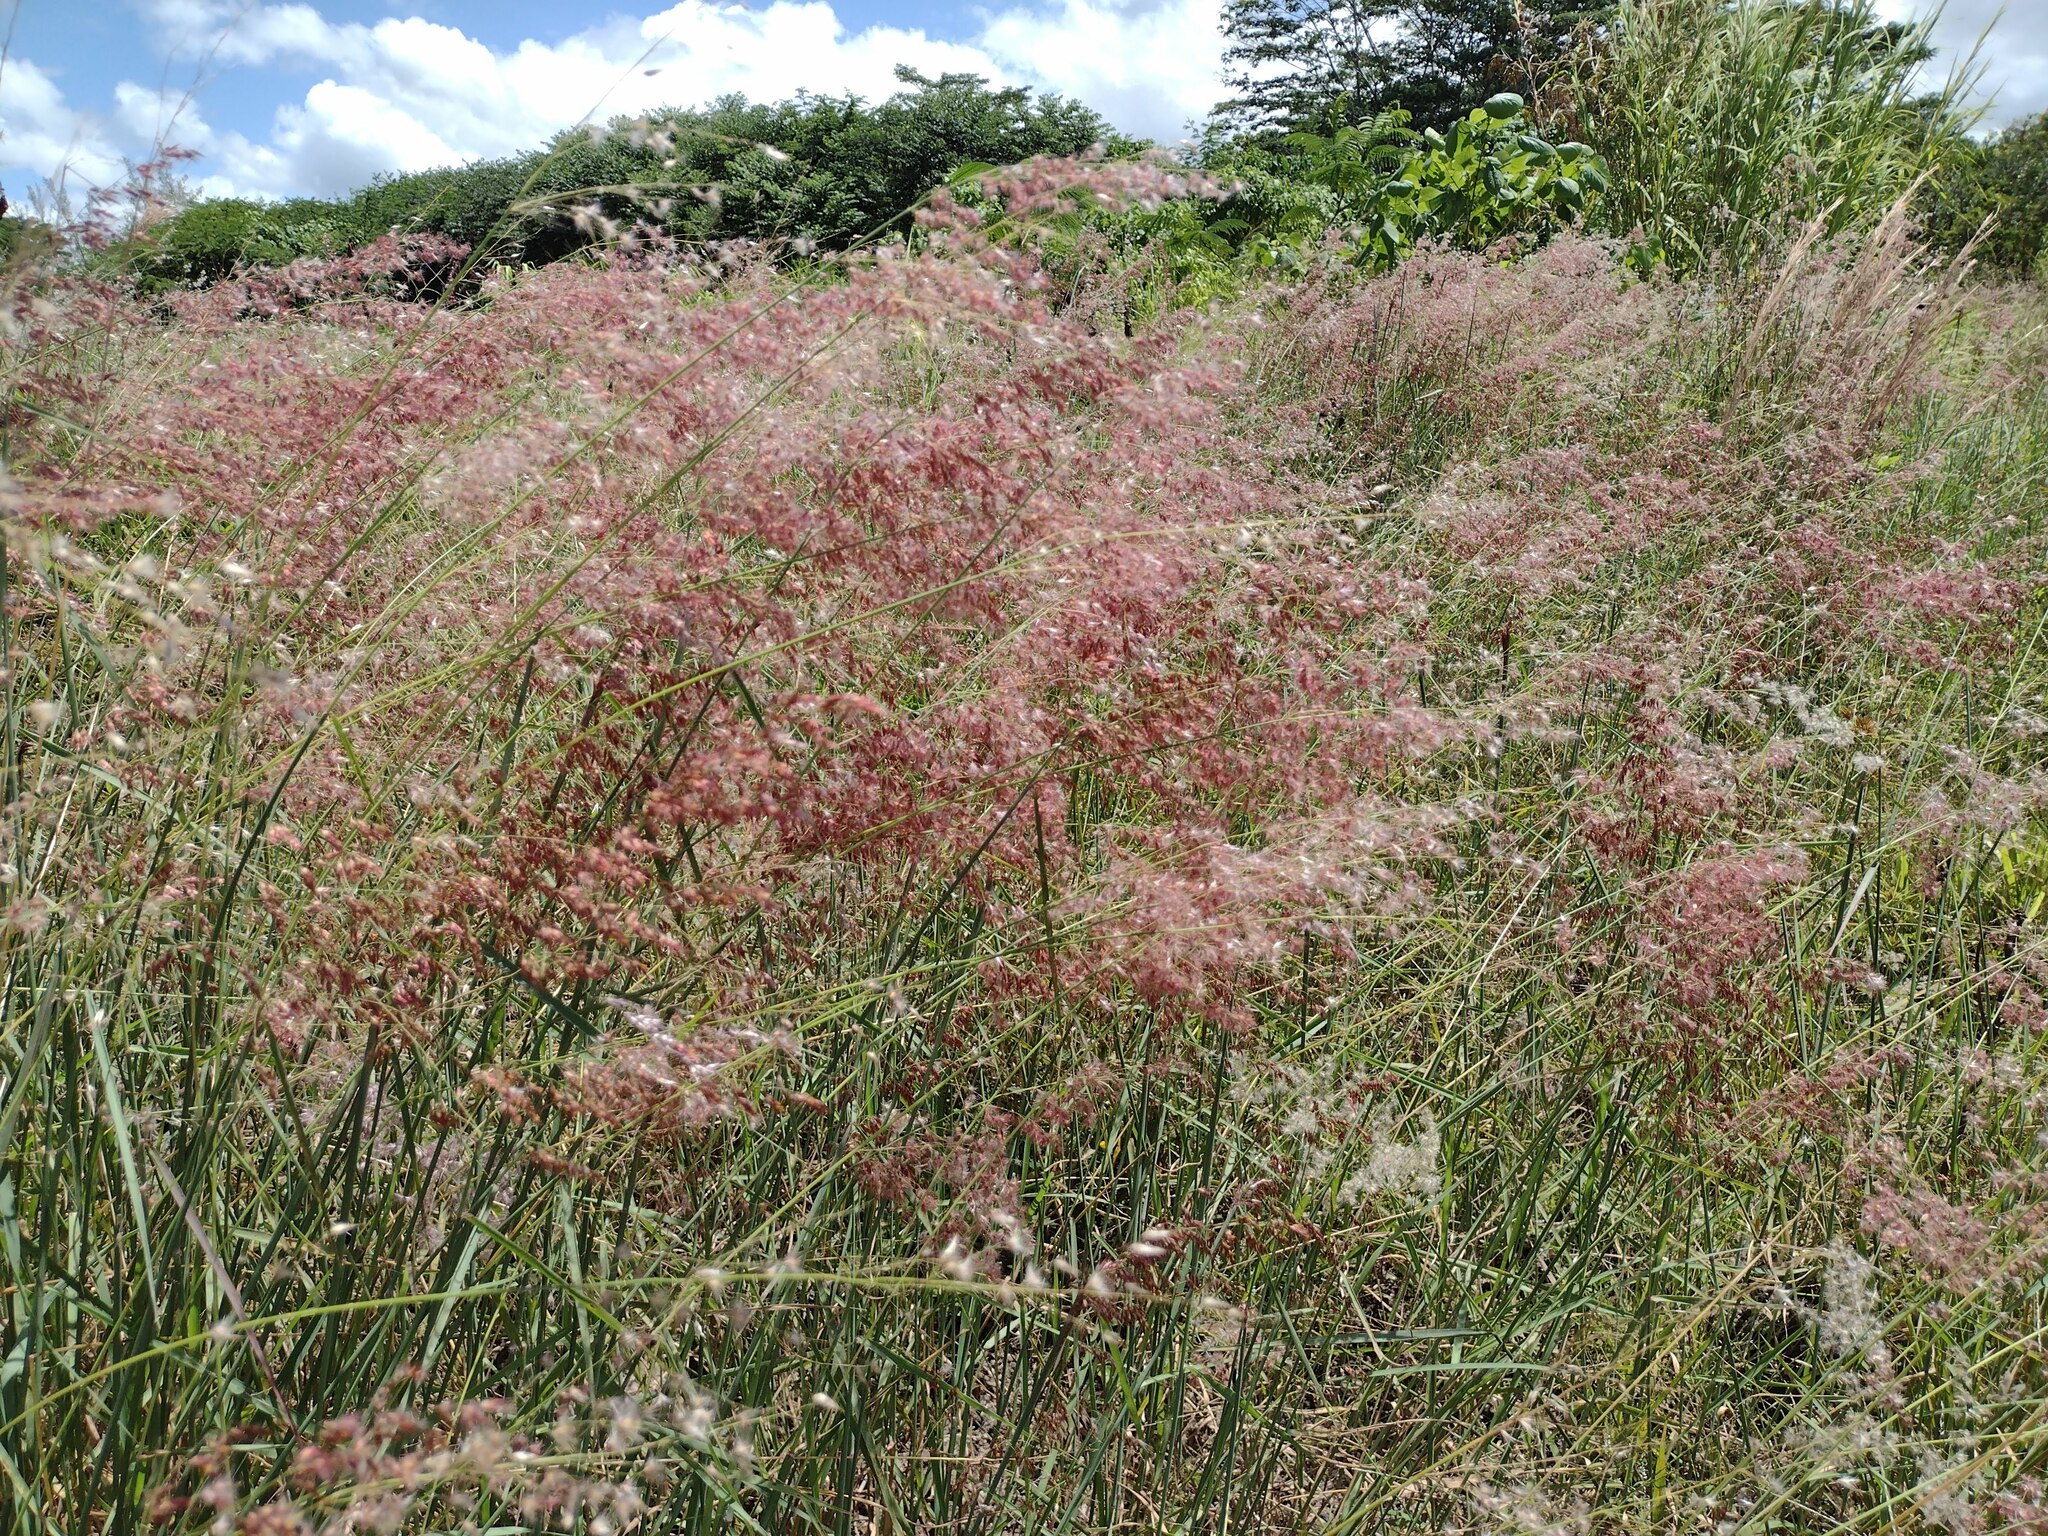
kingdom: Plantae
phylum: Tracheophyta
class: Liliopsida
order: Poales
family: Poaceae
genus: Melinis
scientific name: Melinis repens
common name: Rose natal grass
